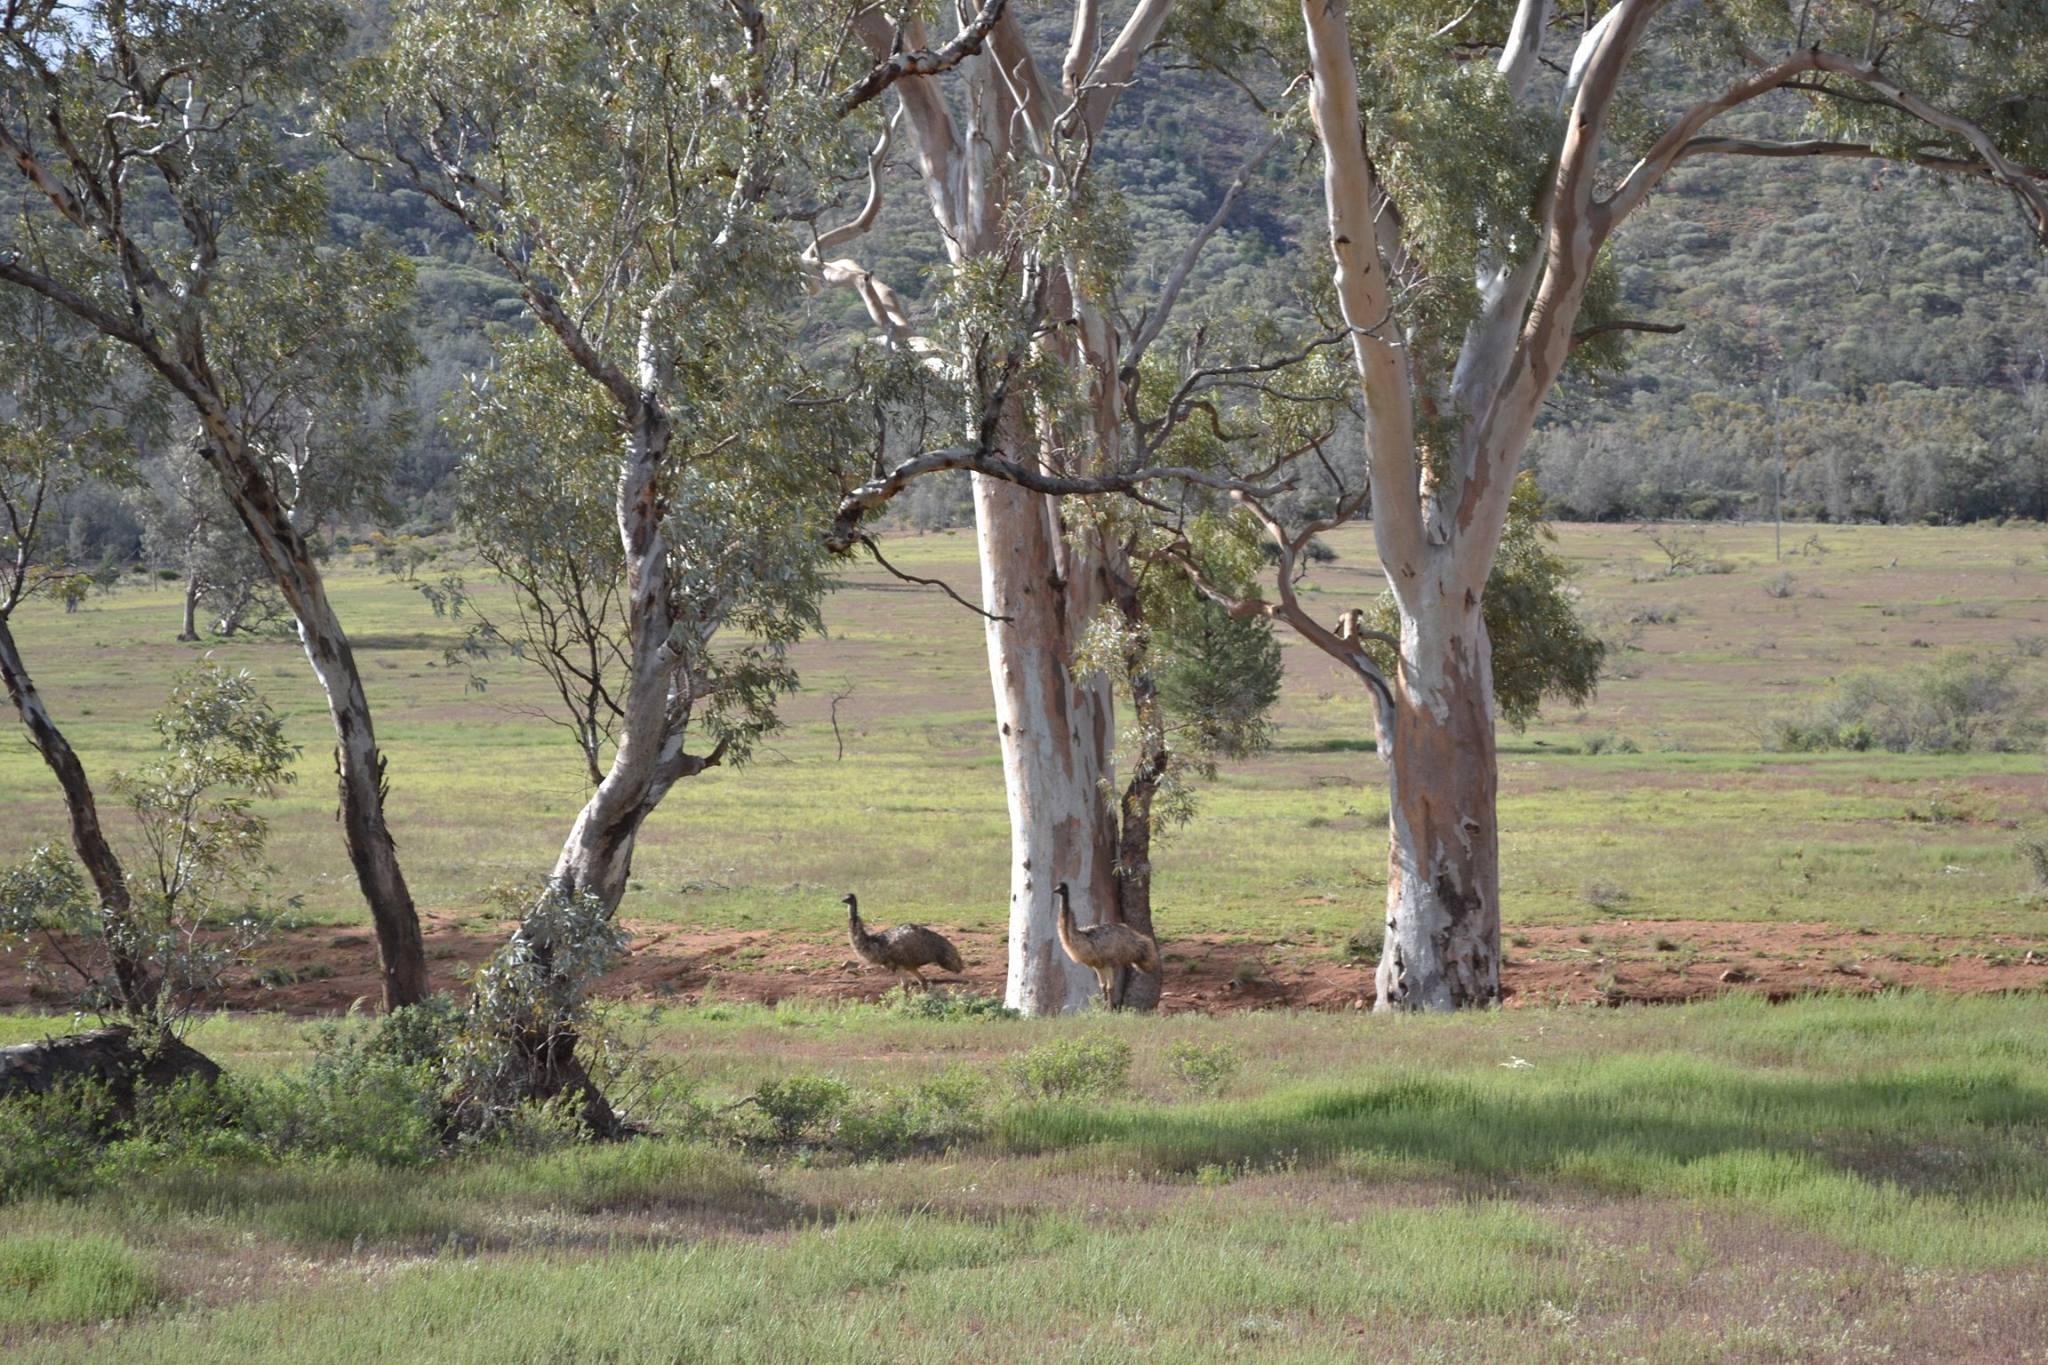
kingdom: Animalia
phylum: Chordata
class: Aves
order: Casuariiformes
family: Dromaiidae
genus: Dromaius
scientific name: Dromaius novaehollandiae
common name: Emu
